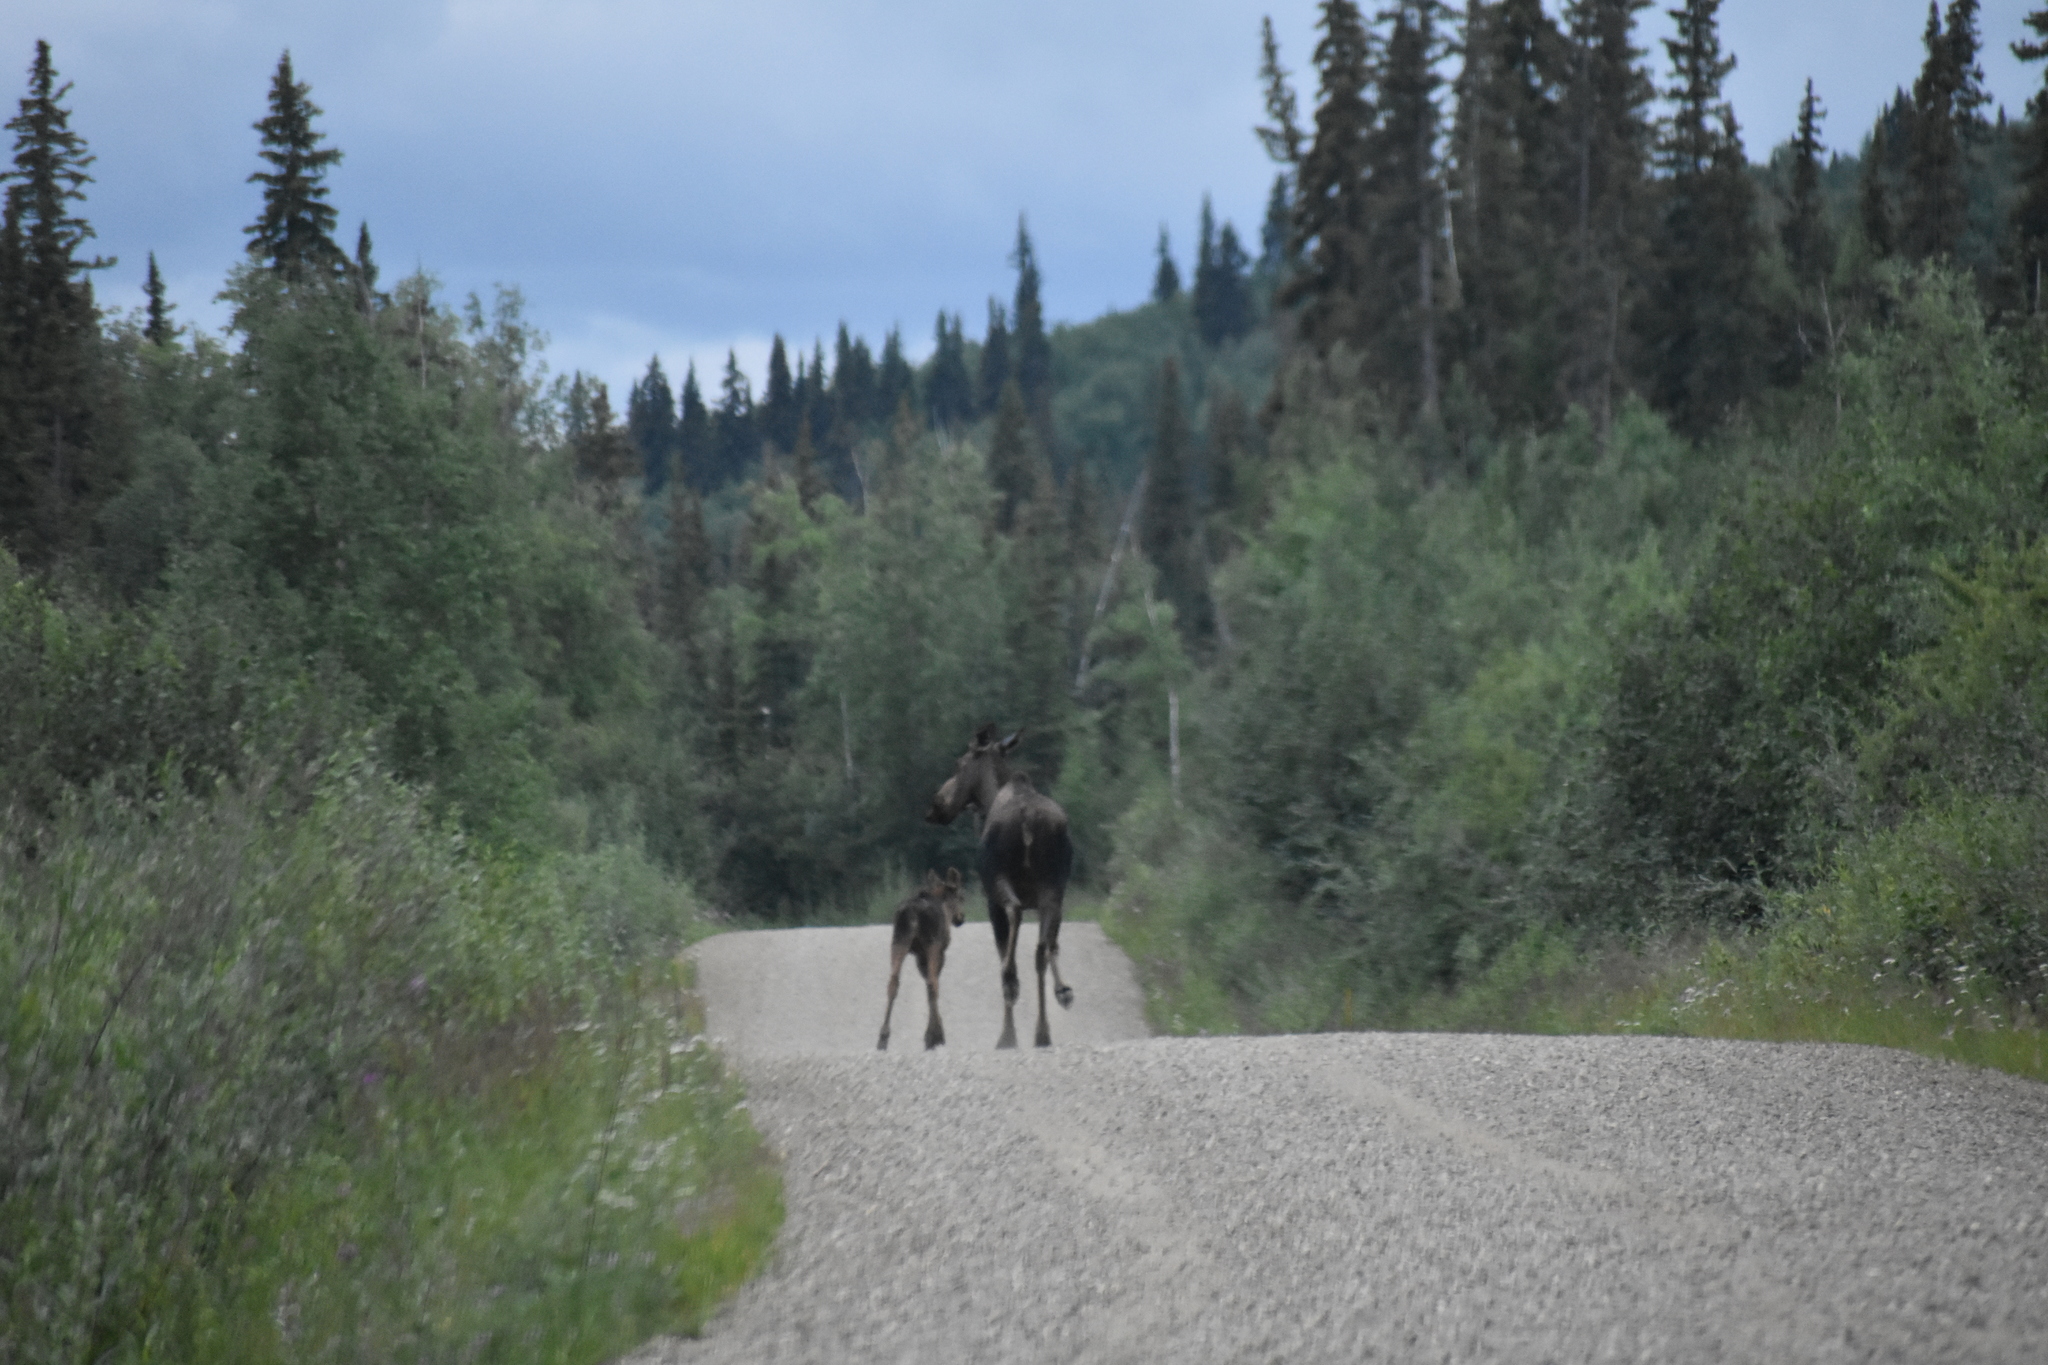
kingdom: Animalia
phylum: Chordata
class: Mammalia
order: Artiodactyla
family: Cervidae
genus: Alces
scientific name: Alces alces
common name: Moose
